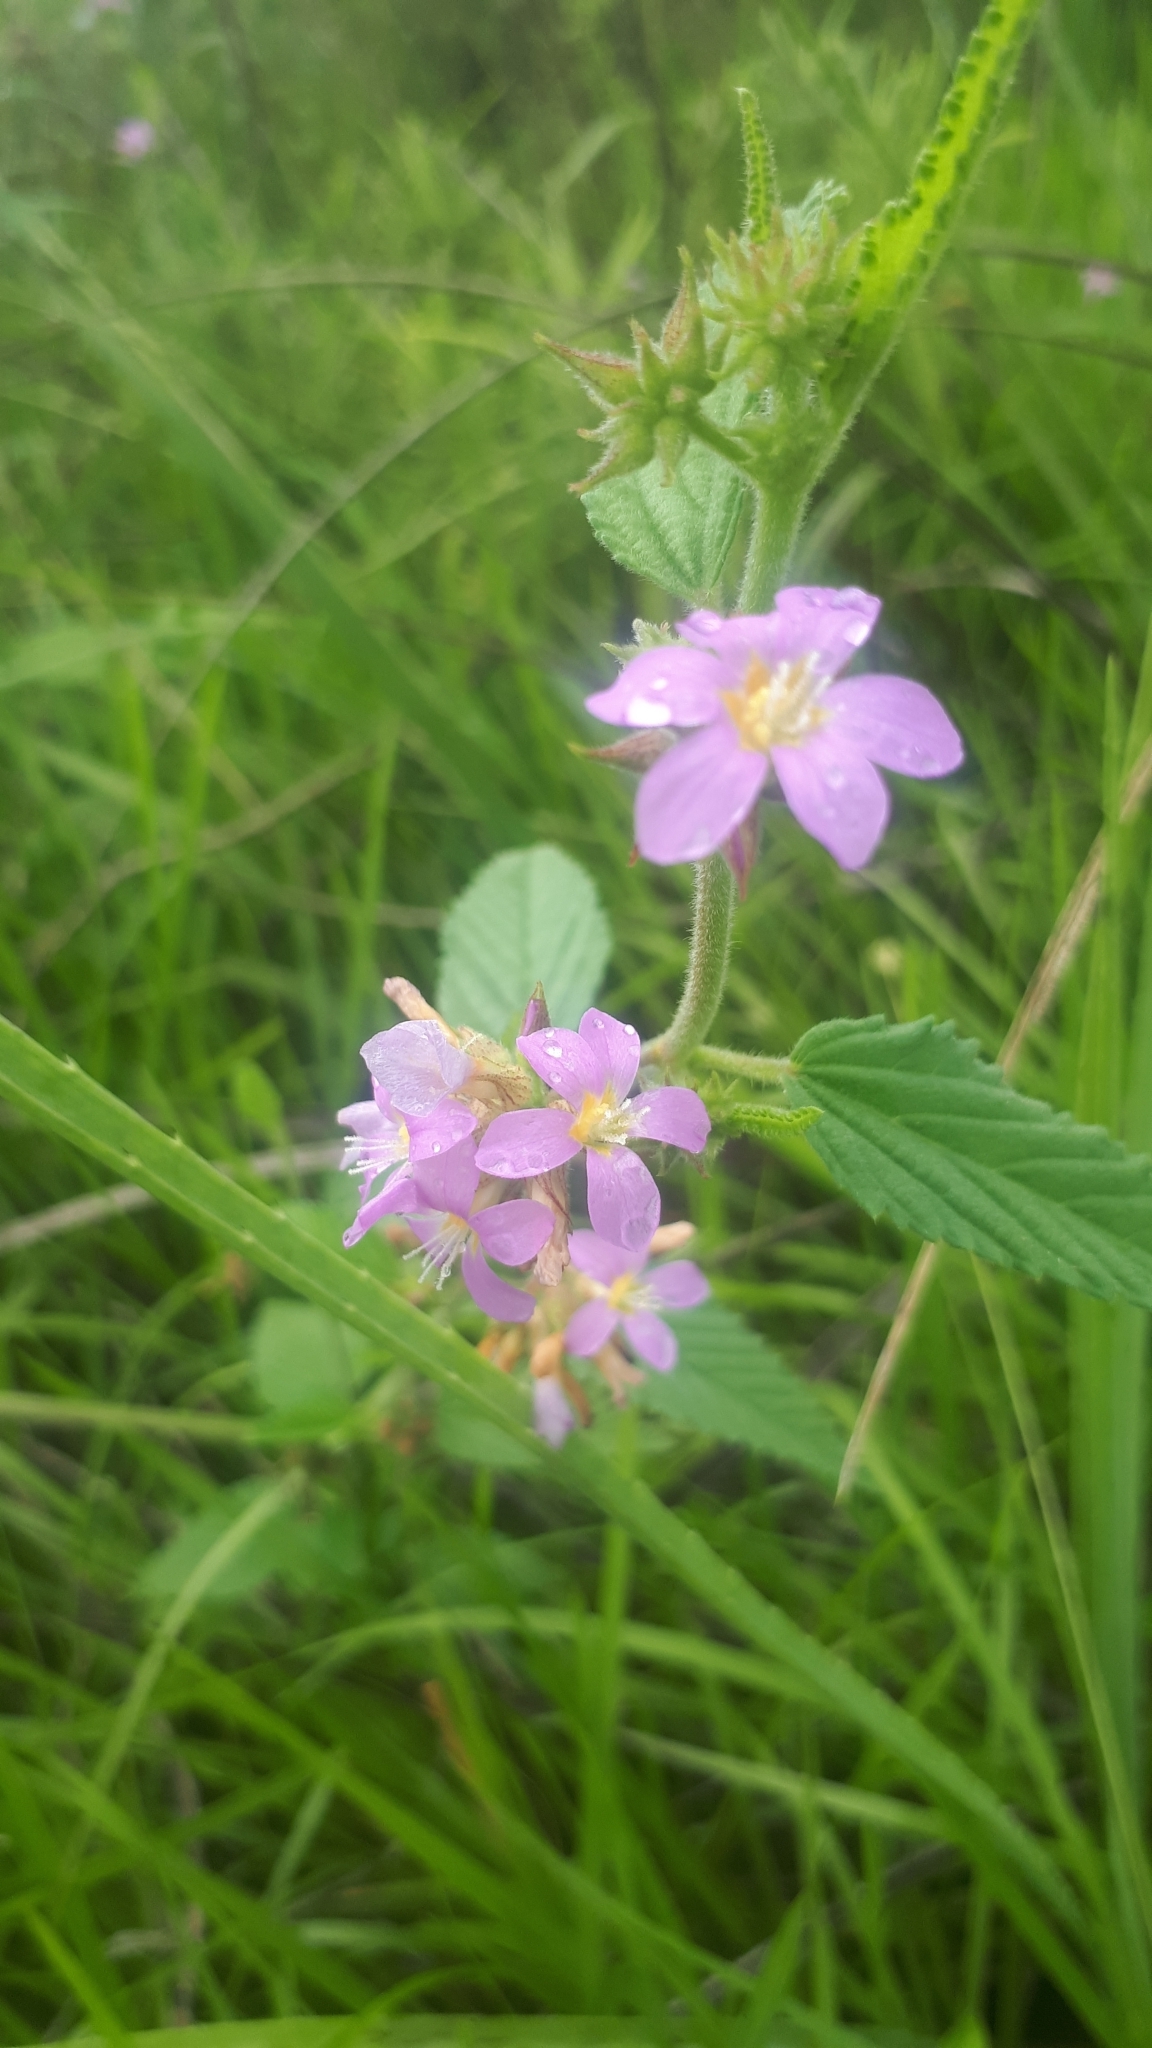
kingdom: Plantae
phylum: Tracheophyta
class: Magnoliopsida
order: Malvales
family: Malvaceae
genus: Melochia
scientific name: Melochia pyramidata
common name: Pyramidflower
